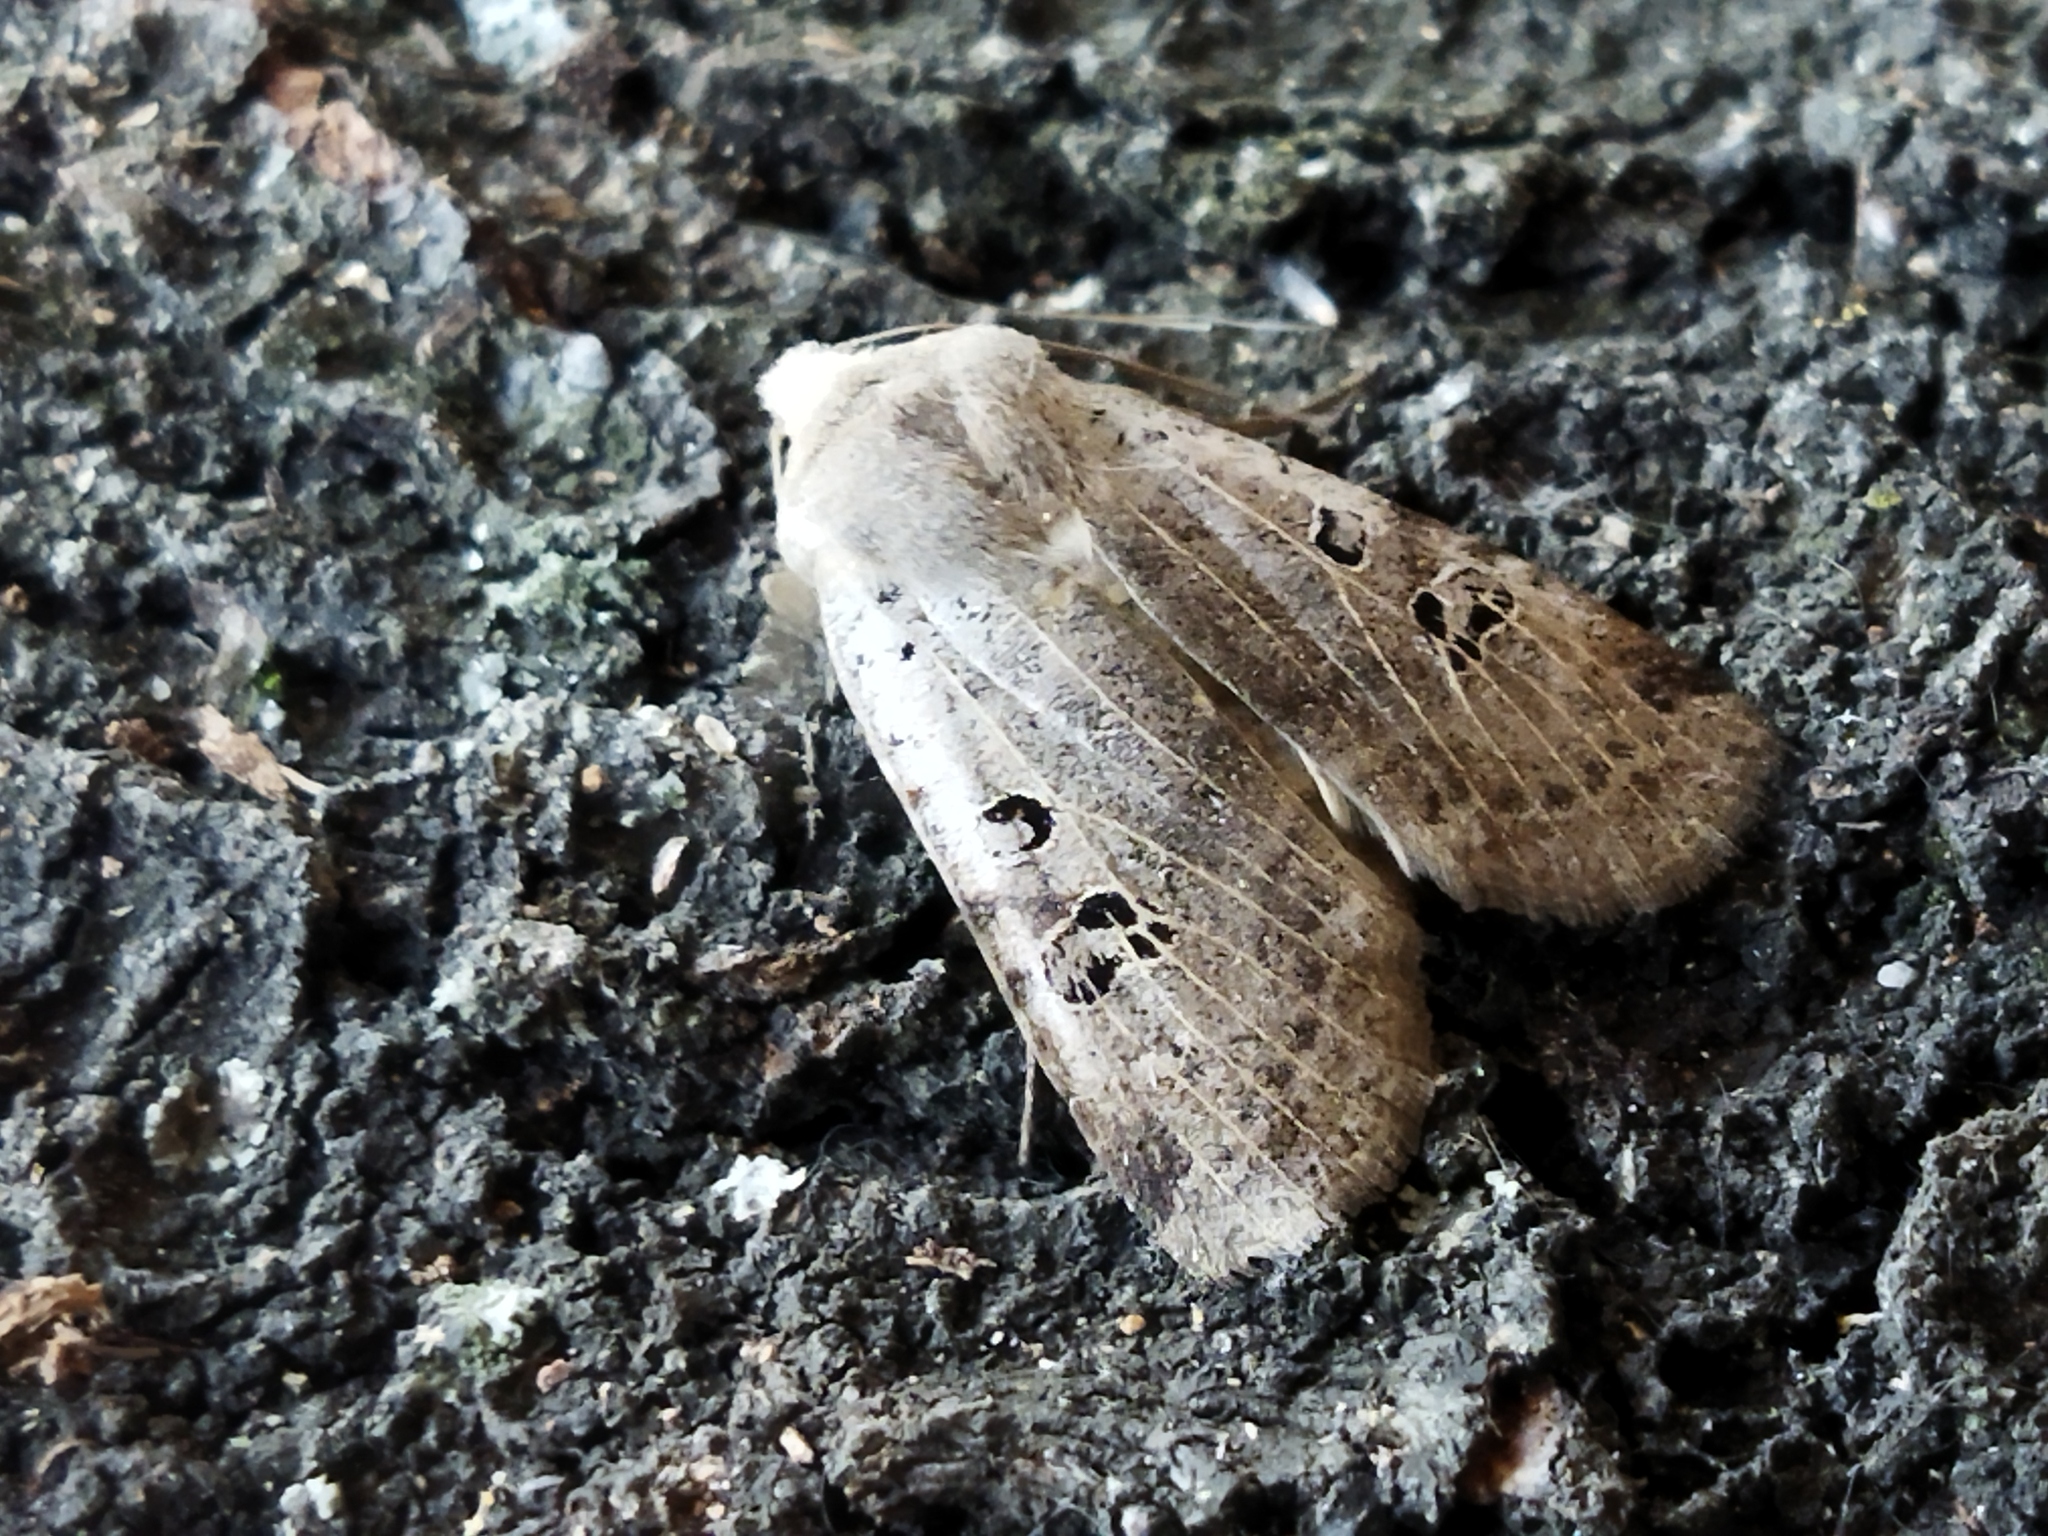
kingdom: Animalia
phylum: Arthropoda
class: Insecta
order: Lepidoptera
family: Noctuidae
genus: Conistra
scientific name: Conistra rubiginosa
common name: Black-spotted chestnut
